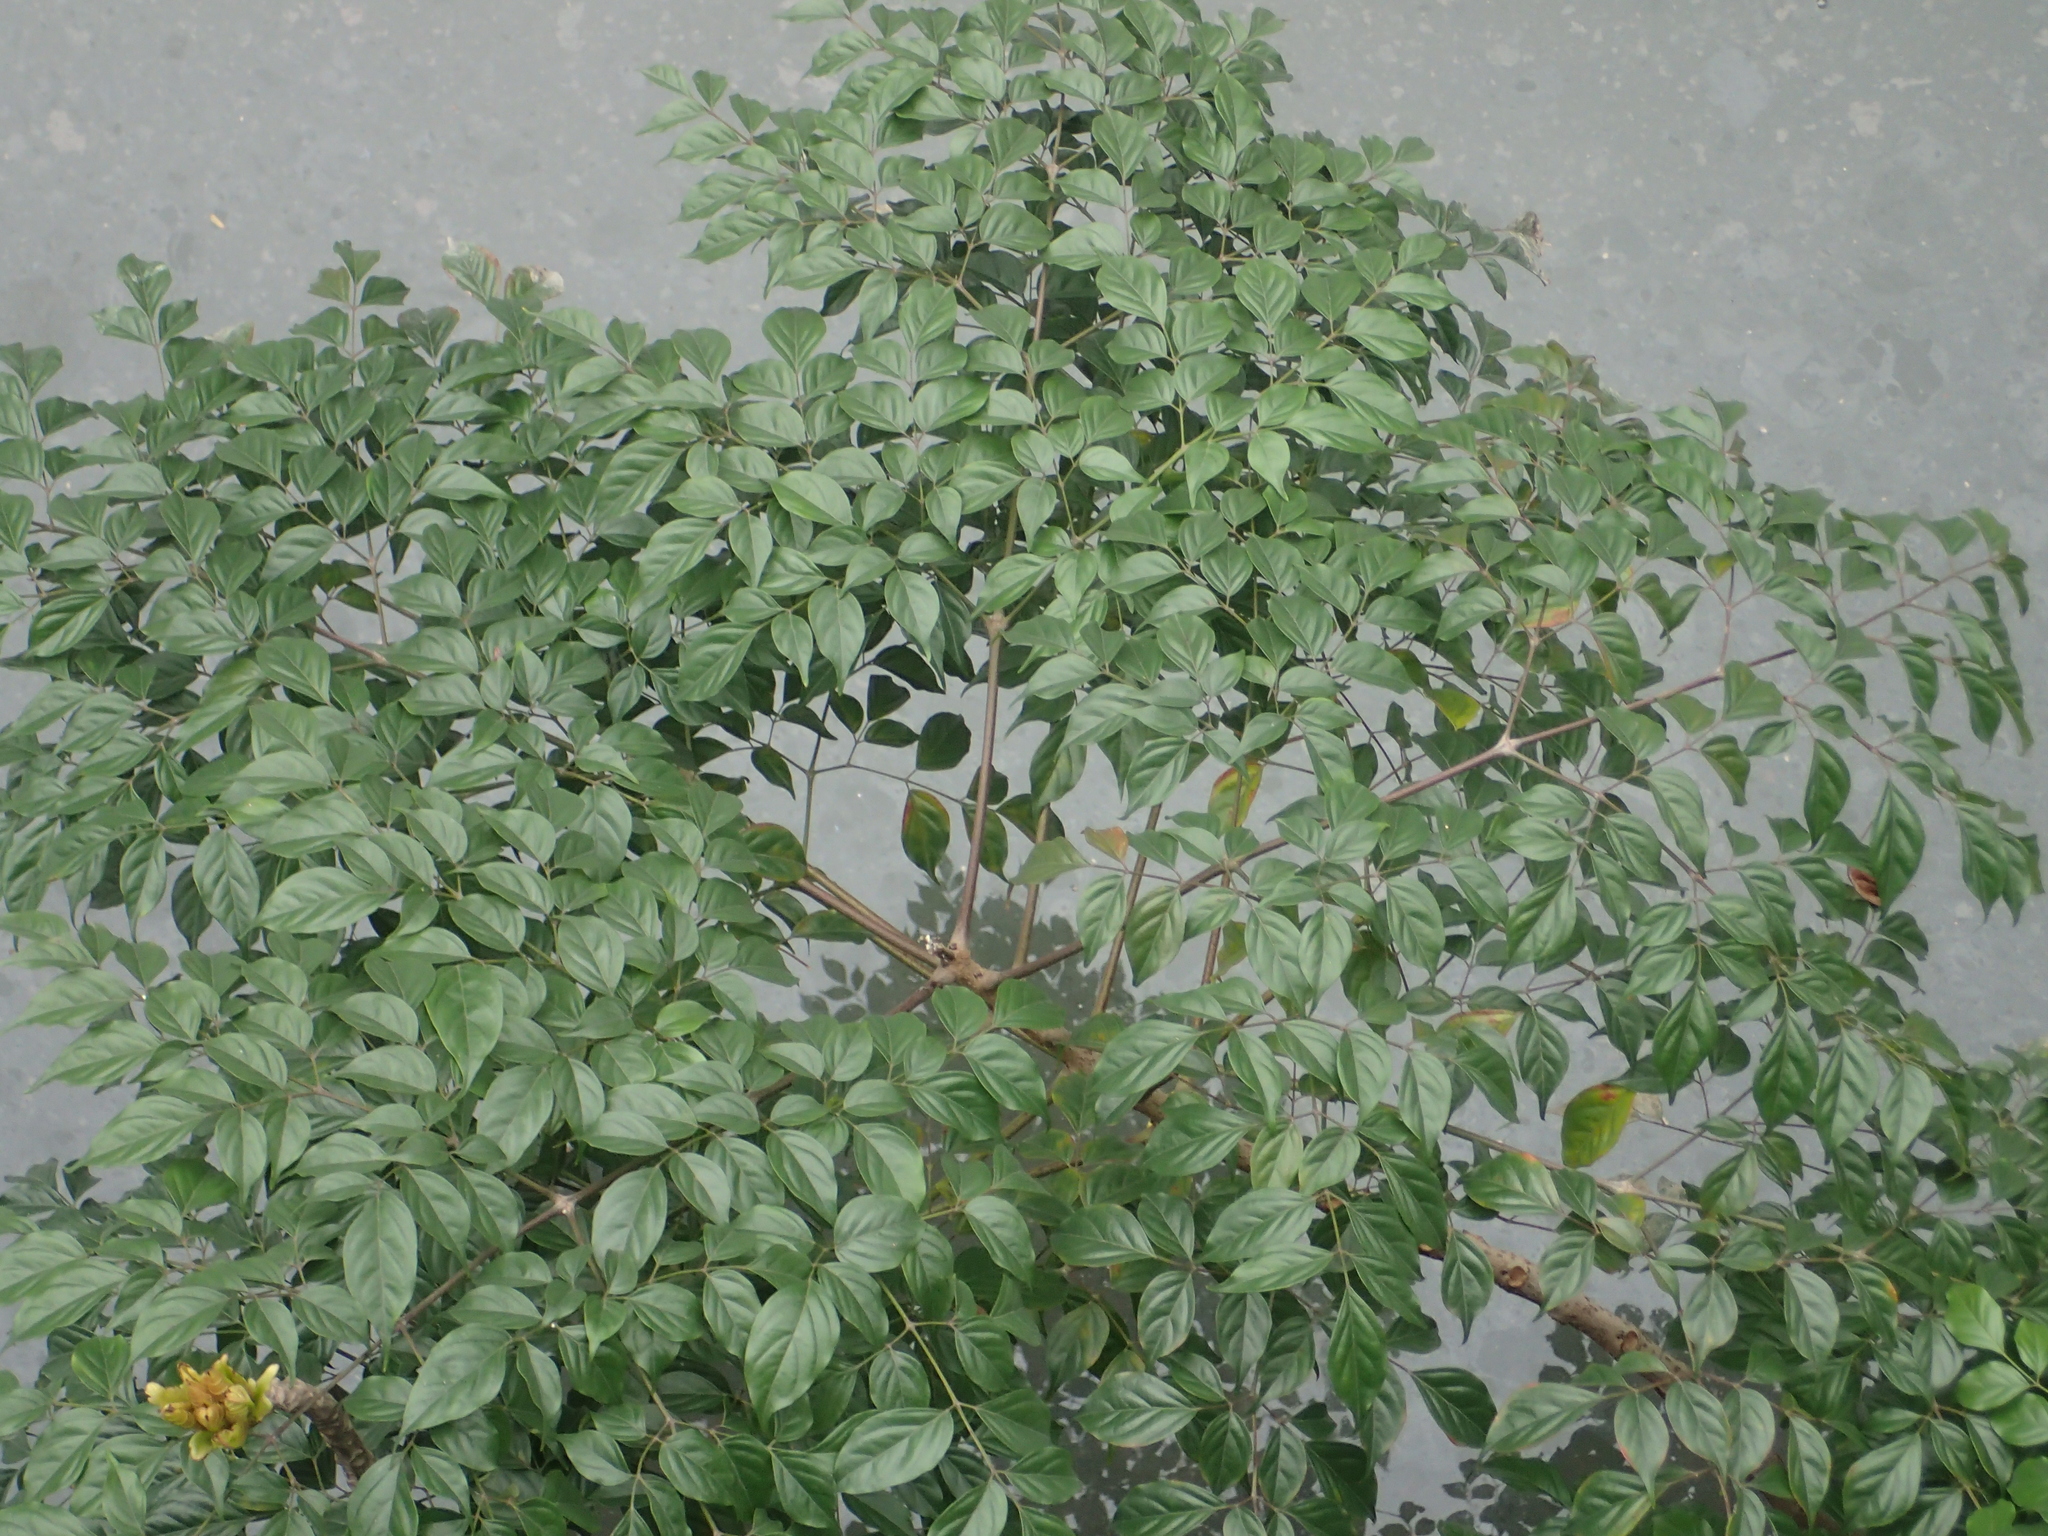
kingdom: Plantae
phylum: Tracheophyta
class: Magnoliopsida
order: Lamiales
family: Bignoniaceae
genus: Radermachera
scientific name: Radermachera sinica
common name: China doll plant
